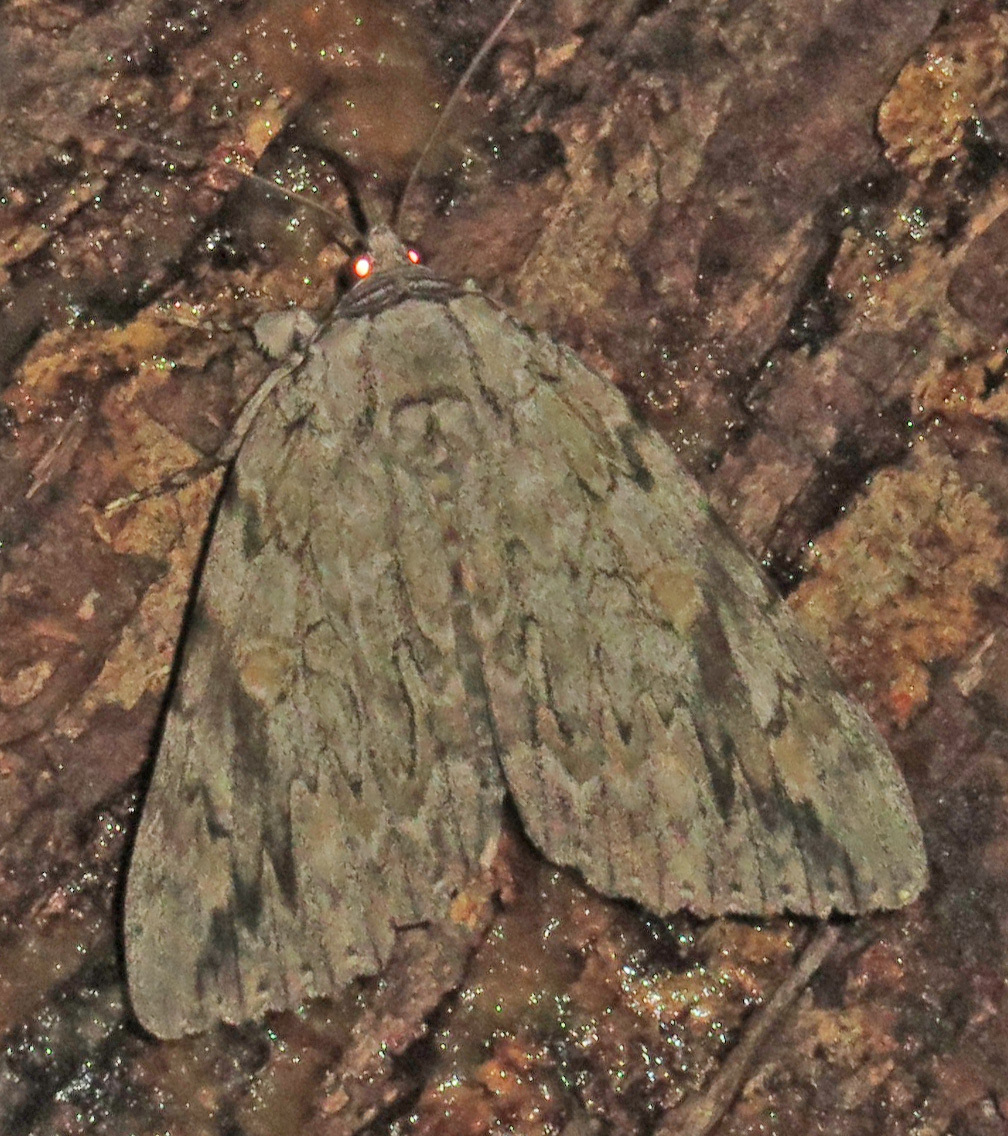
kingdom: Animalia
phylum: Arthropoda
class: Insecta
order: Lepidoptera
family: Erebidae
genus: Catocala
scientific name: Catocala maestosa
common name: Sad underwing
